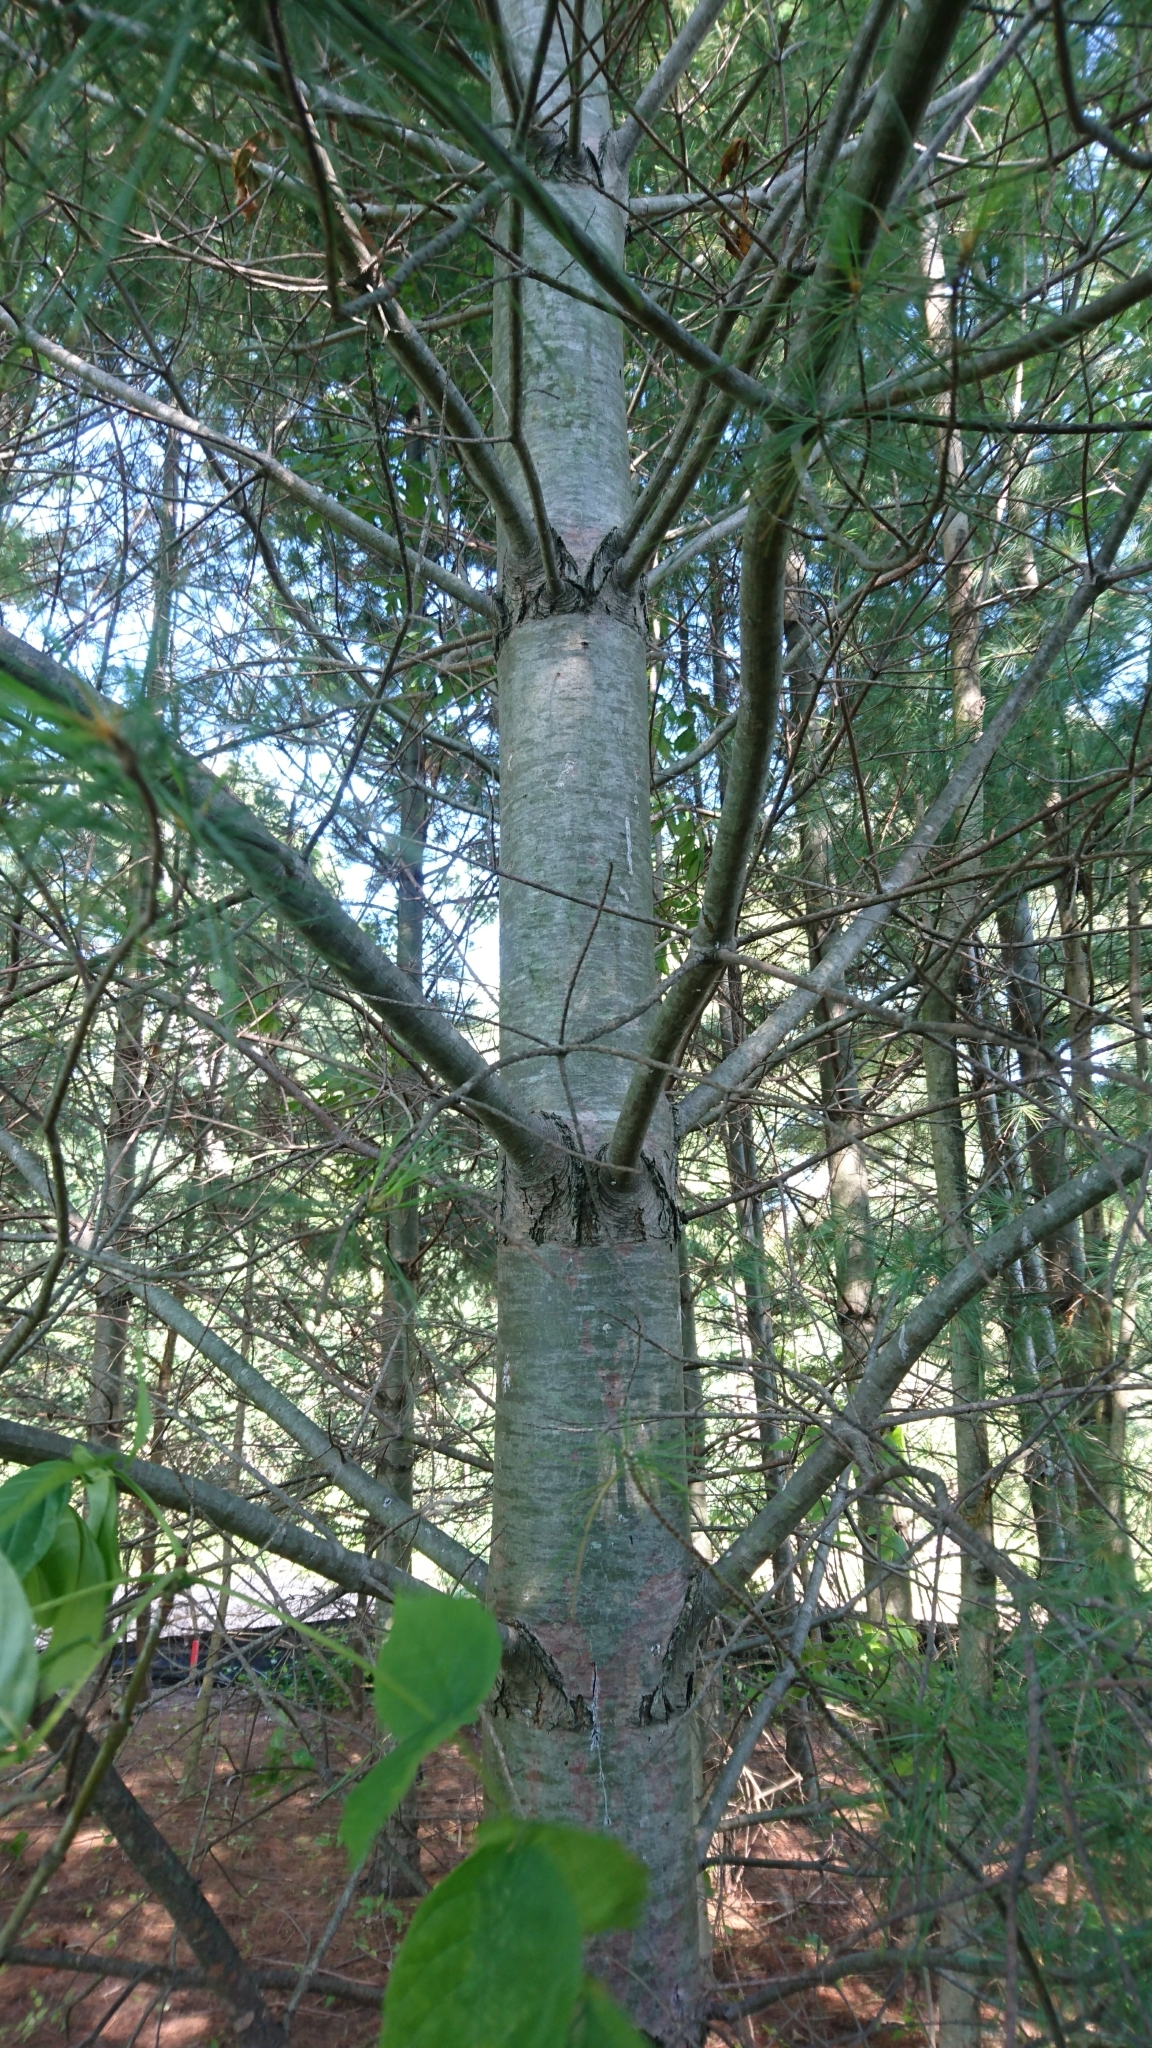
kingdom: Plantae
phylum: Tracheophyta
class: Pinopsida
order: Pinales
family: Pinaceae
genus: Pinus
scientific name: Pinus strobus
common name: Weymouth pine
